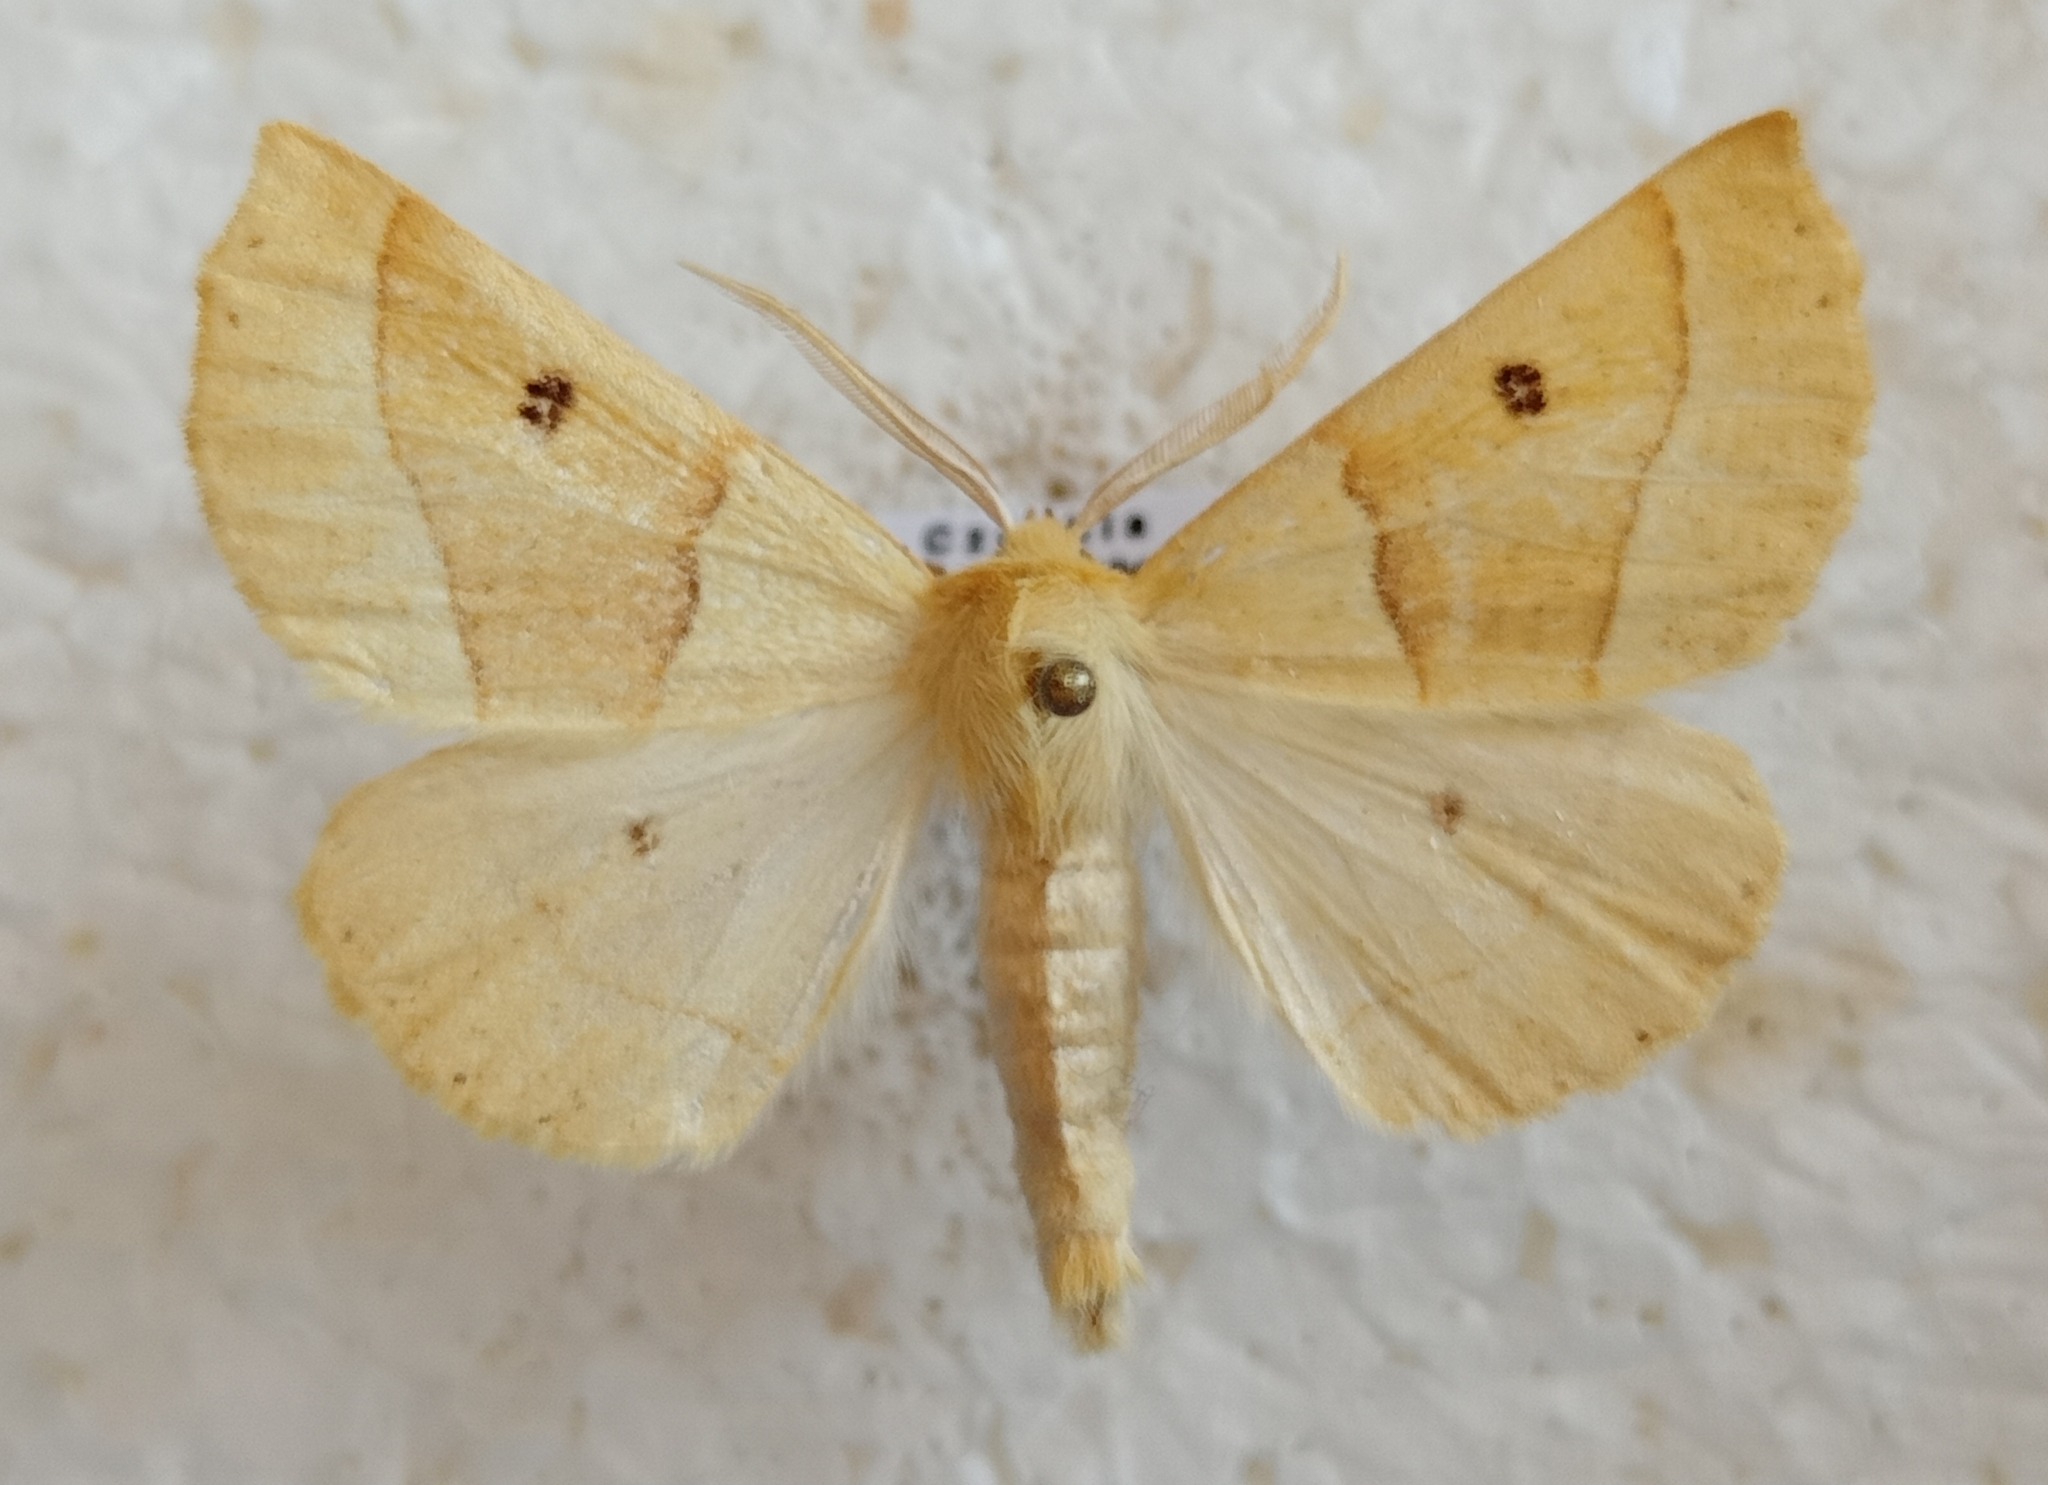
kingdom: Animalia
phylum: Arthropoda
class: Insecta
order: Lepidoptera
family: Geometridae
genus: Crocallis
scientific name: Crocallis elinguaria
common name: Scalloped oak
